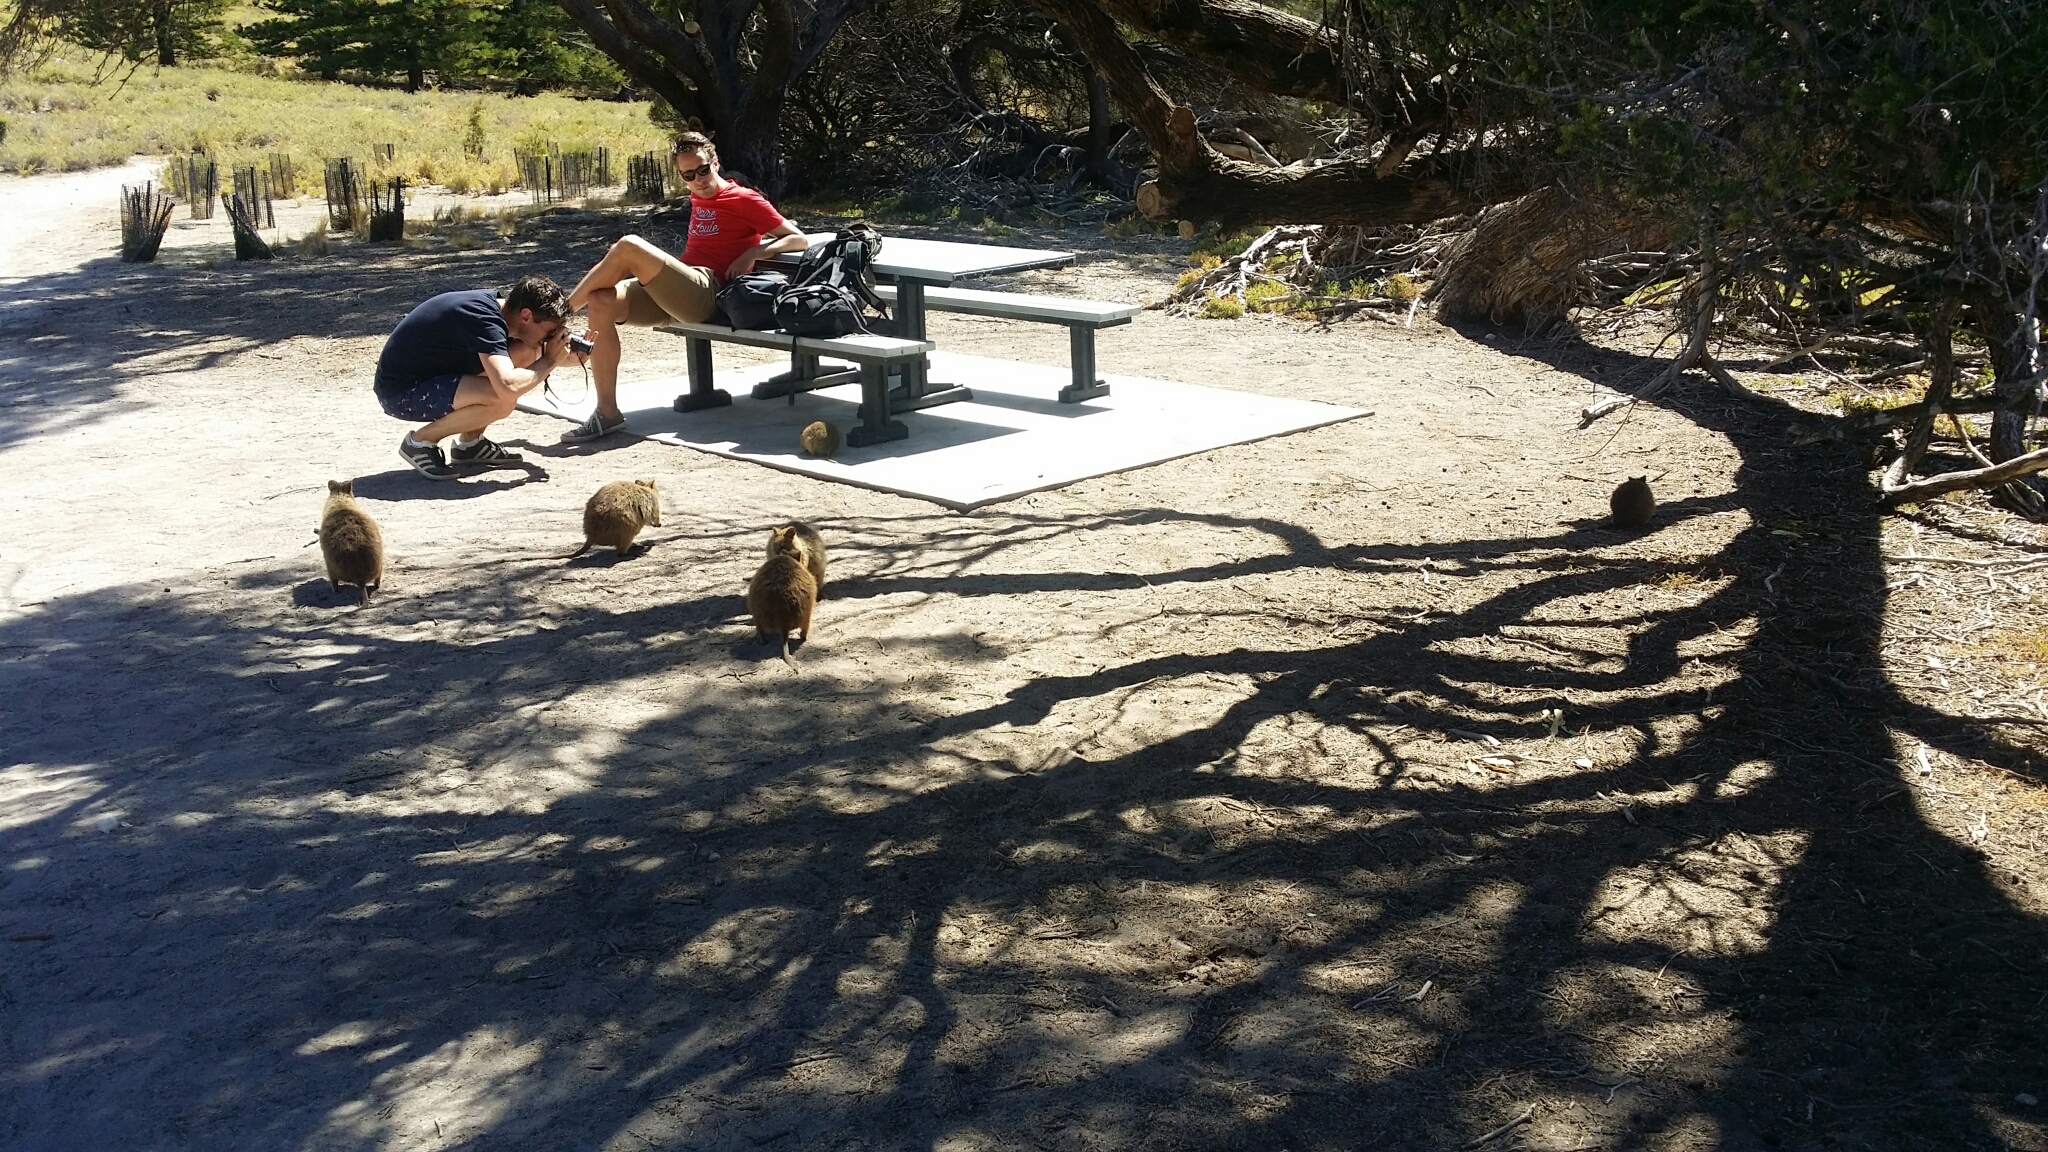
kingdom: Animalia
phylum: Chordata
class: Mammalia
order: Diprotodontia
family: Macropodidae
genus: Setonix
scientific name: Setonix brachyurus
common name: Quokka
